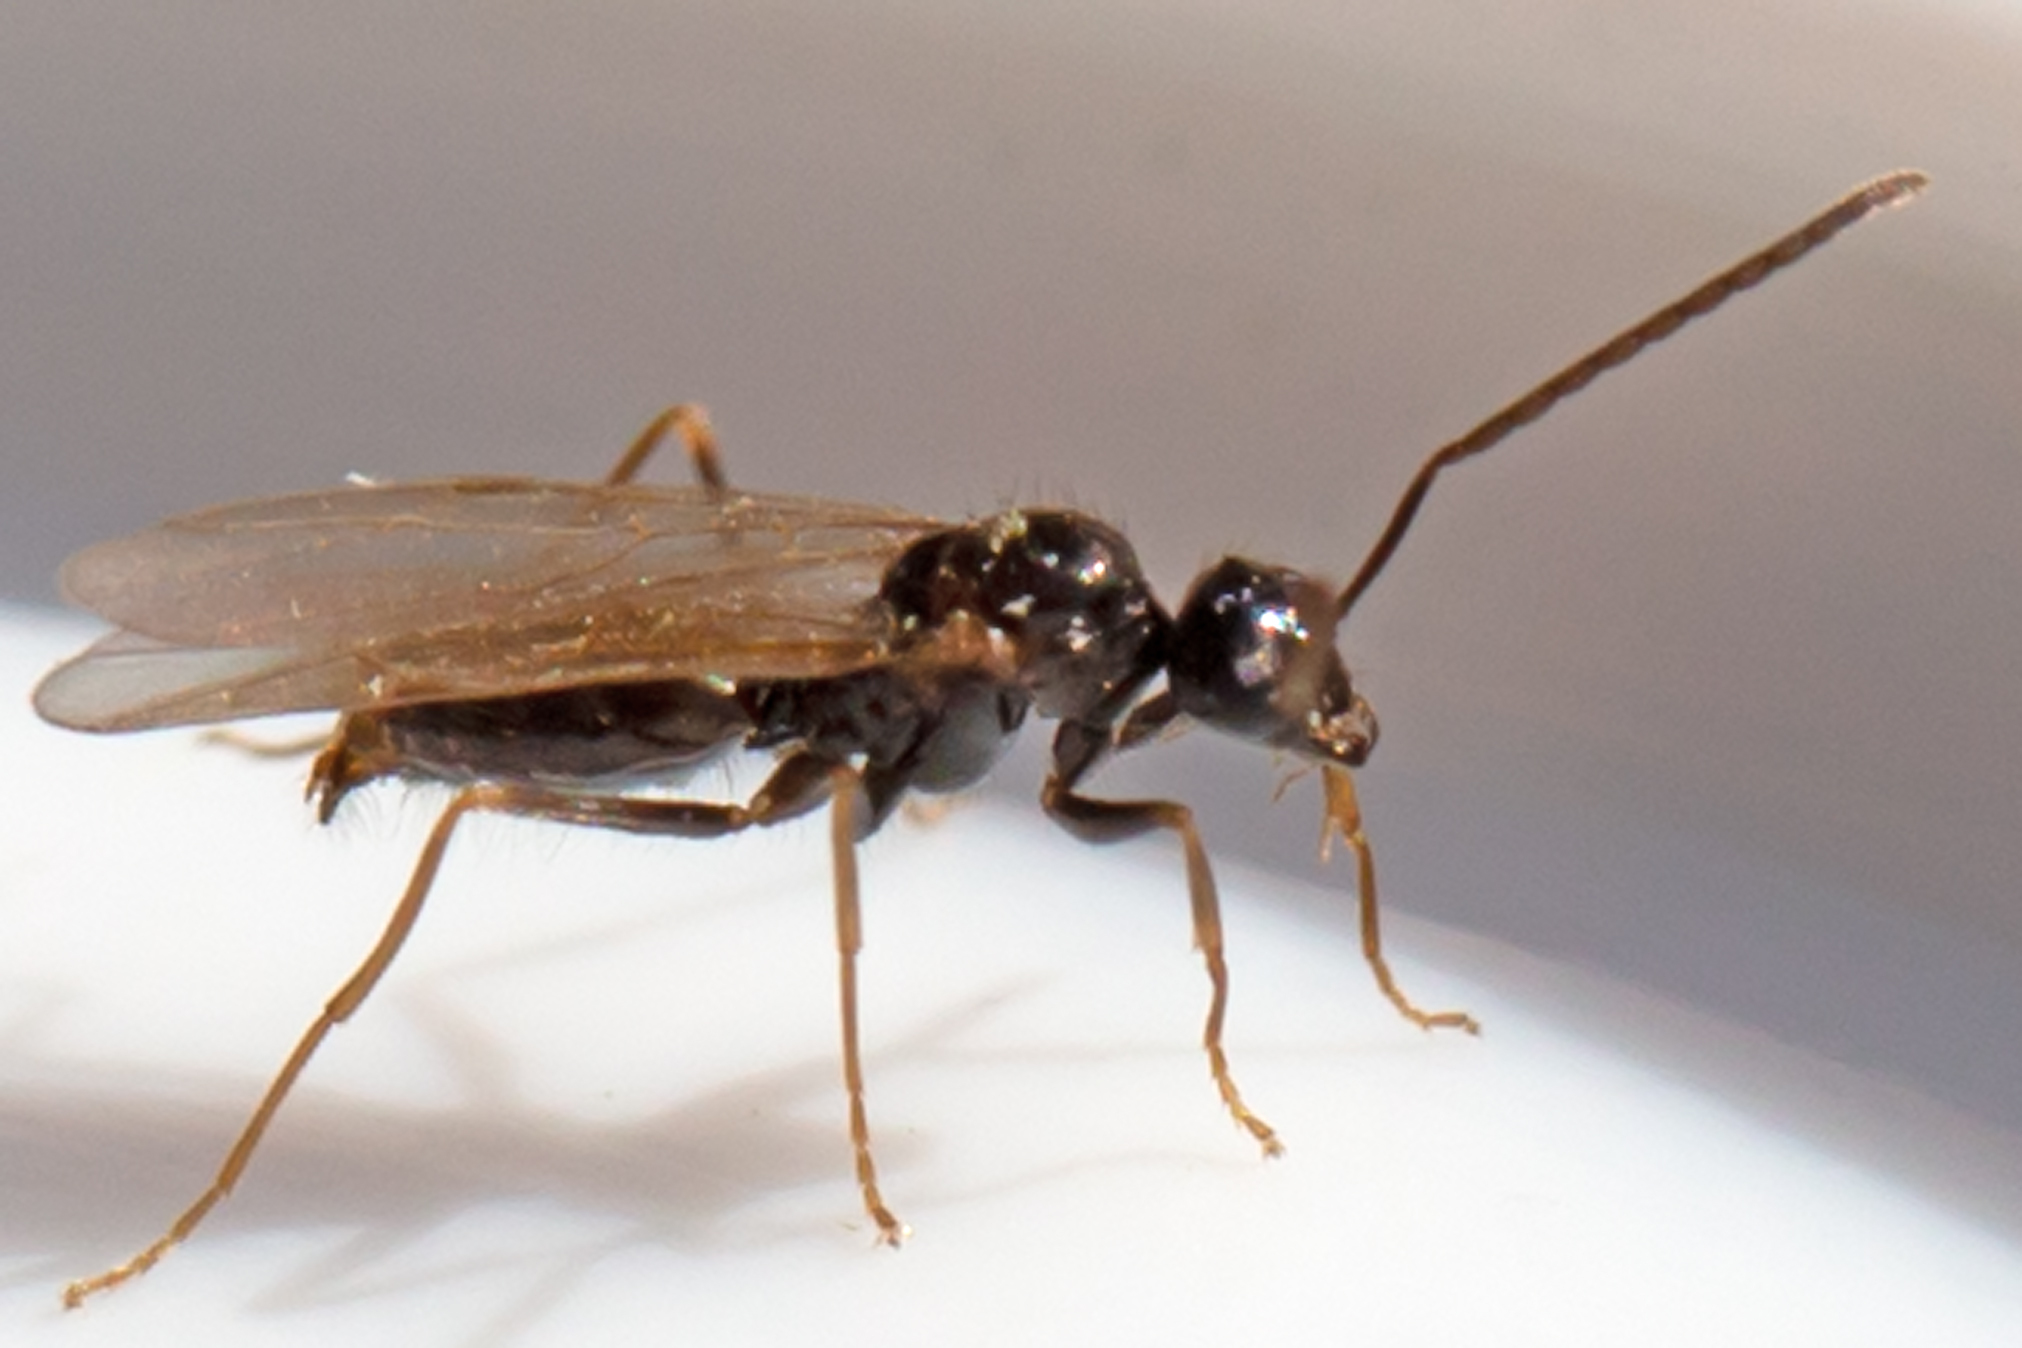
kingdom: Animalia
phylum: Arthropoda
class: Insecta
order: Hymenoptera
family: Formicidae
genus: Prenolepis
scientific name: Prenolepis imparis
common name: Small honey ant
